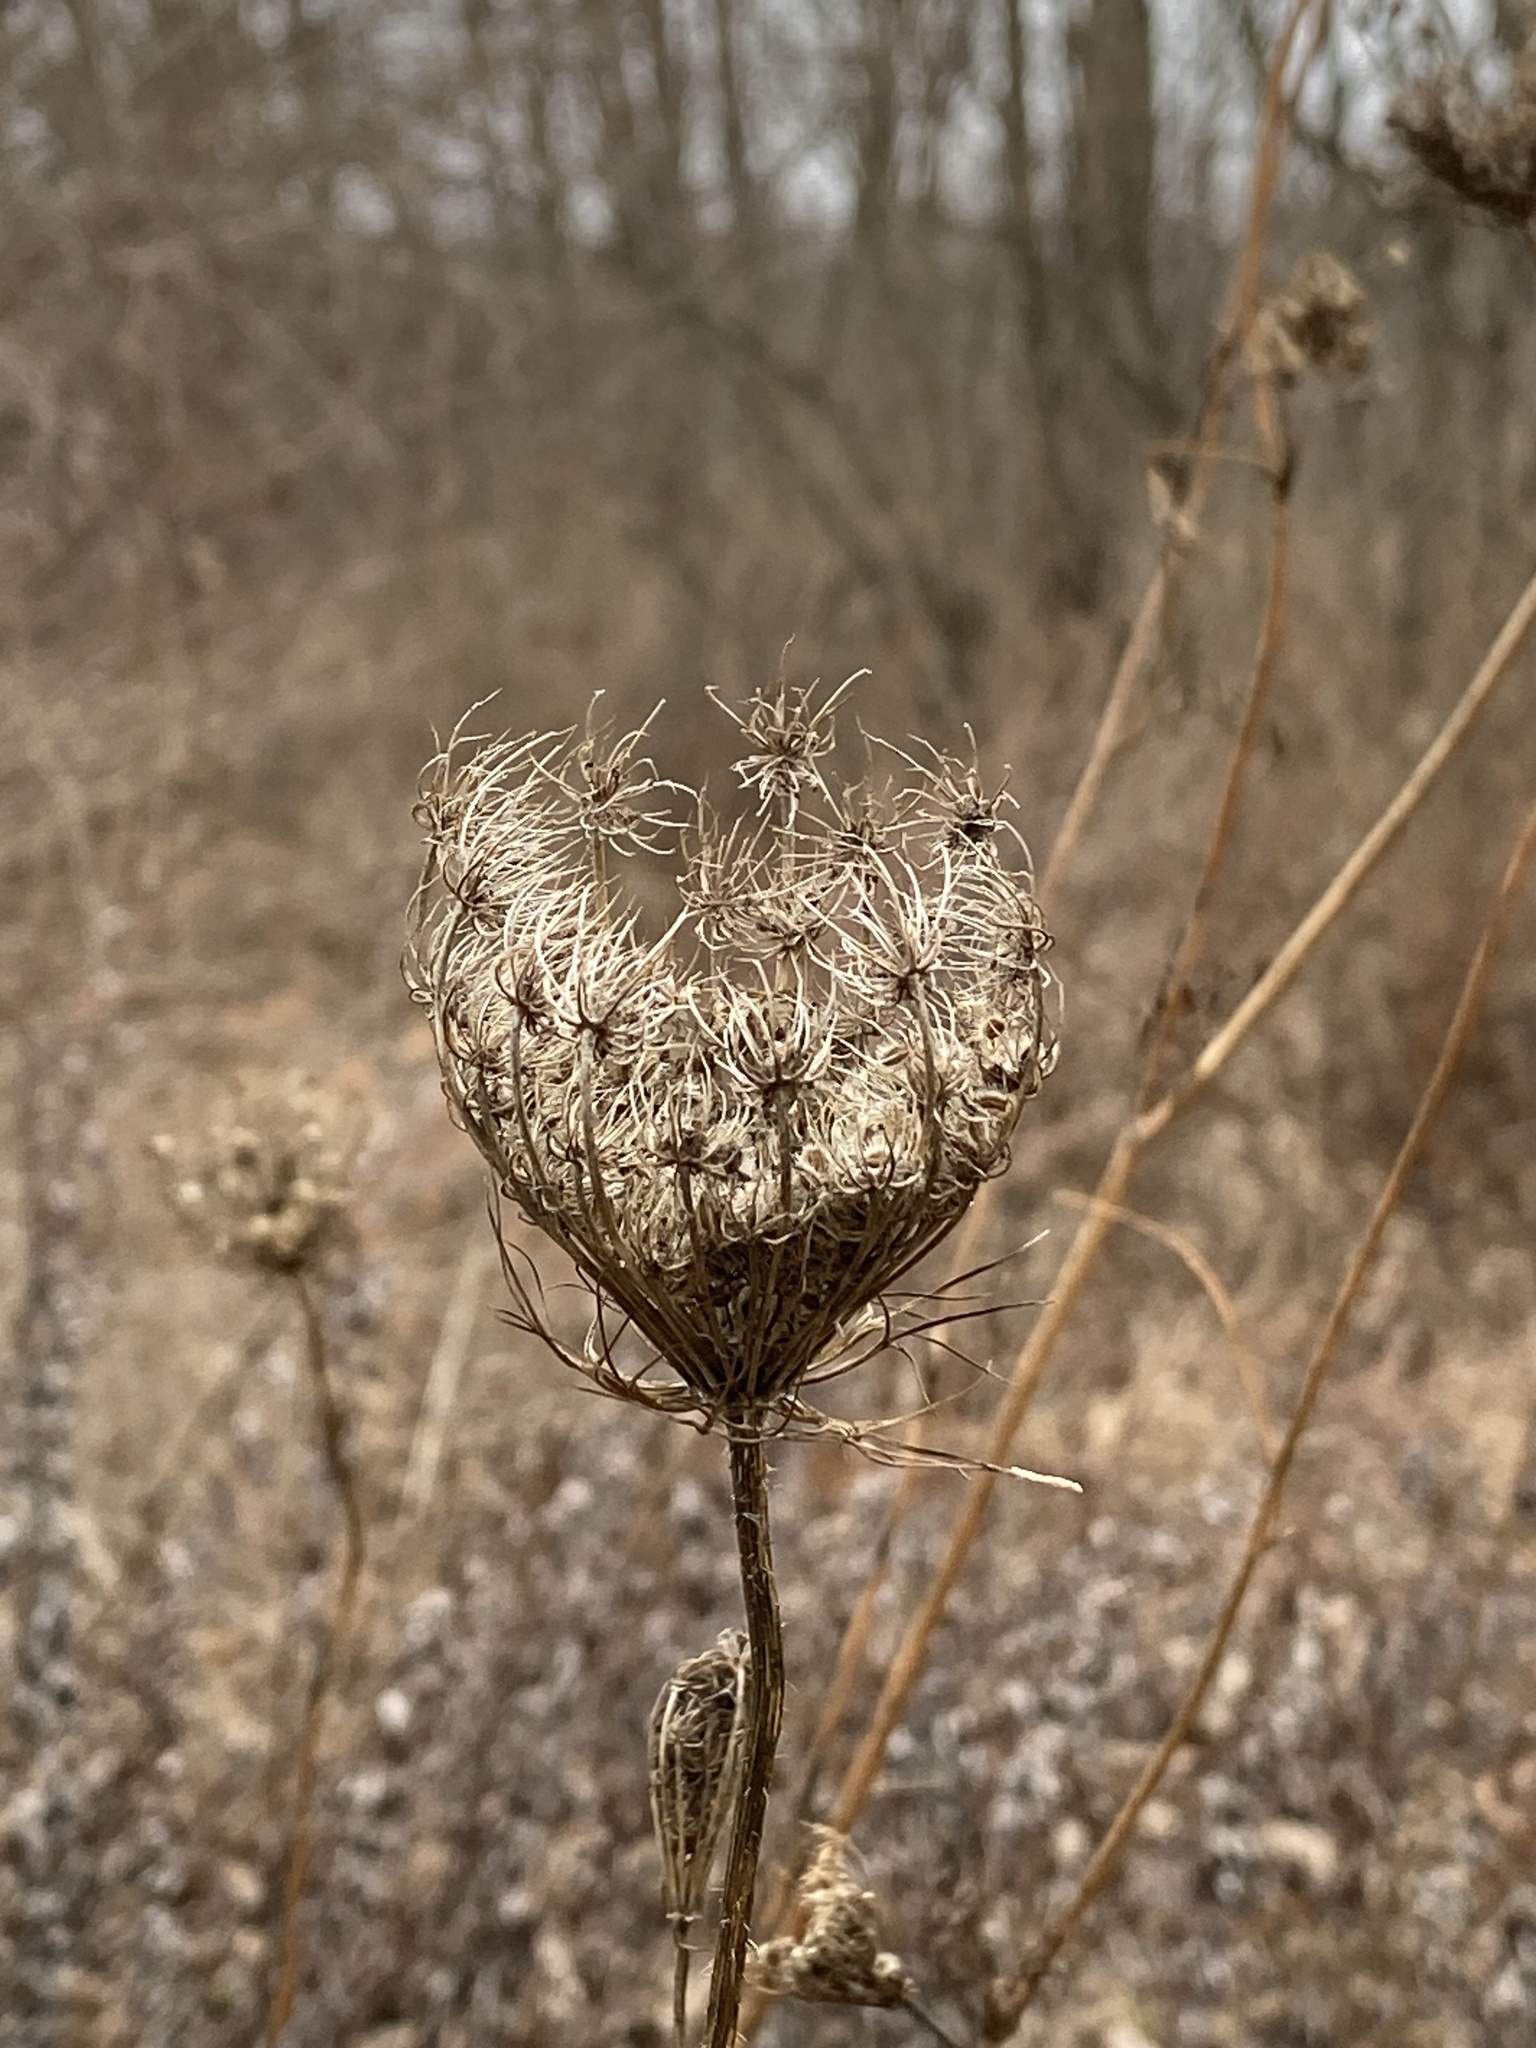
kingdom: Plantae
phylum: Tracheophyta
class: Magnoliopsida
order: Apiales
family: Apiaceae
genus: Daucus
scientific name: Daucus carota
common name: Wild carrot
